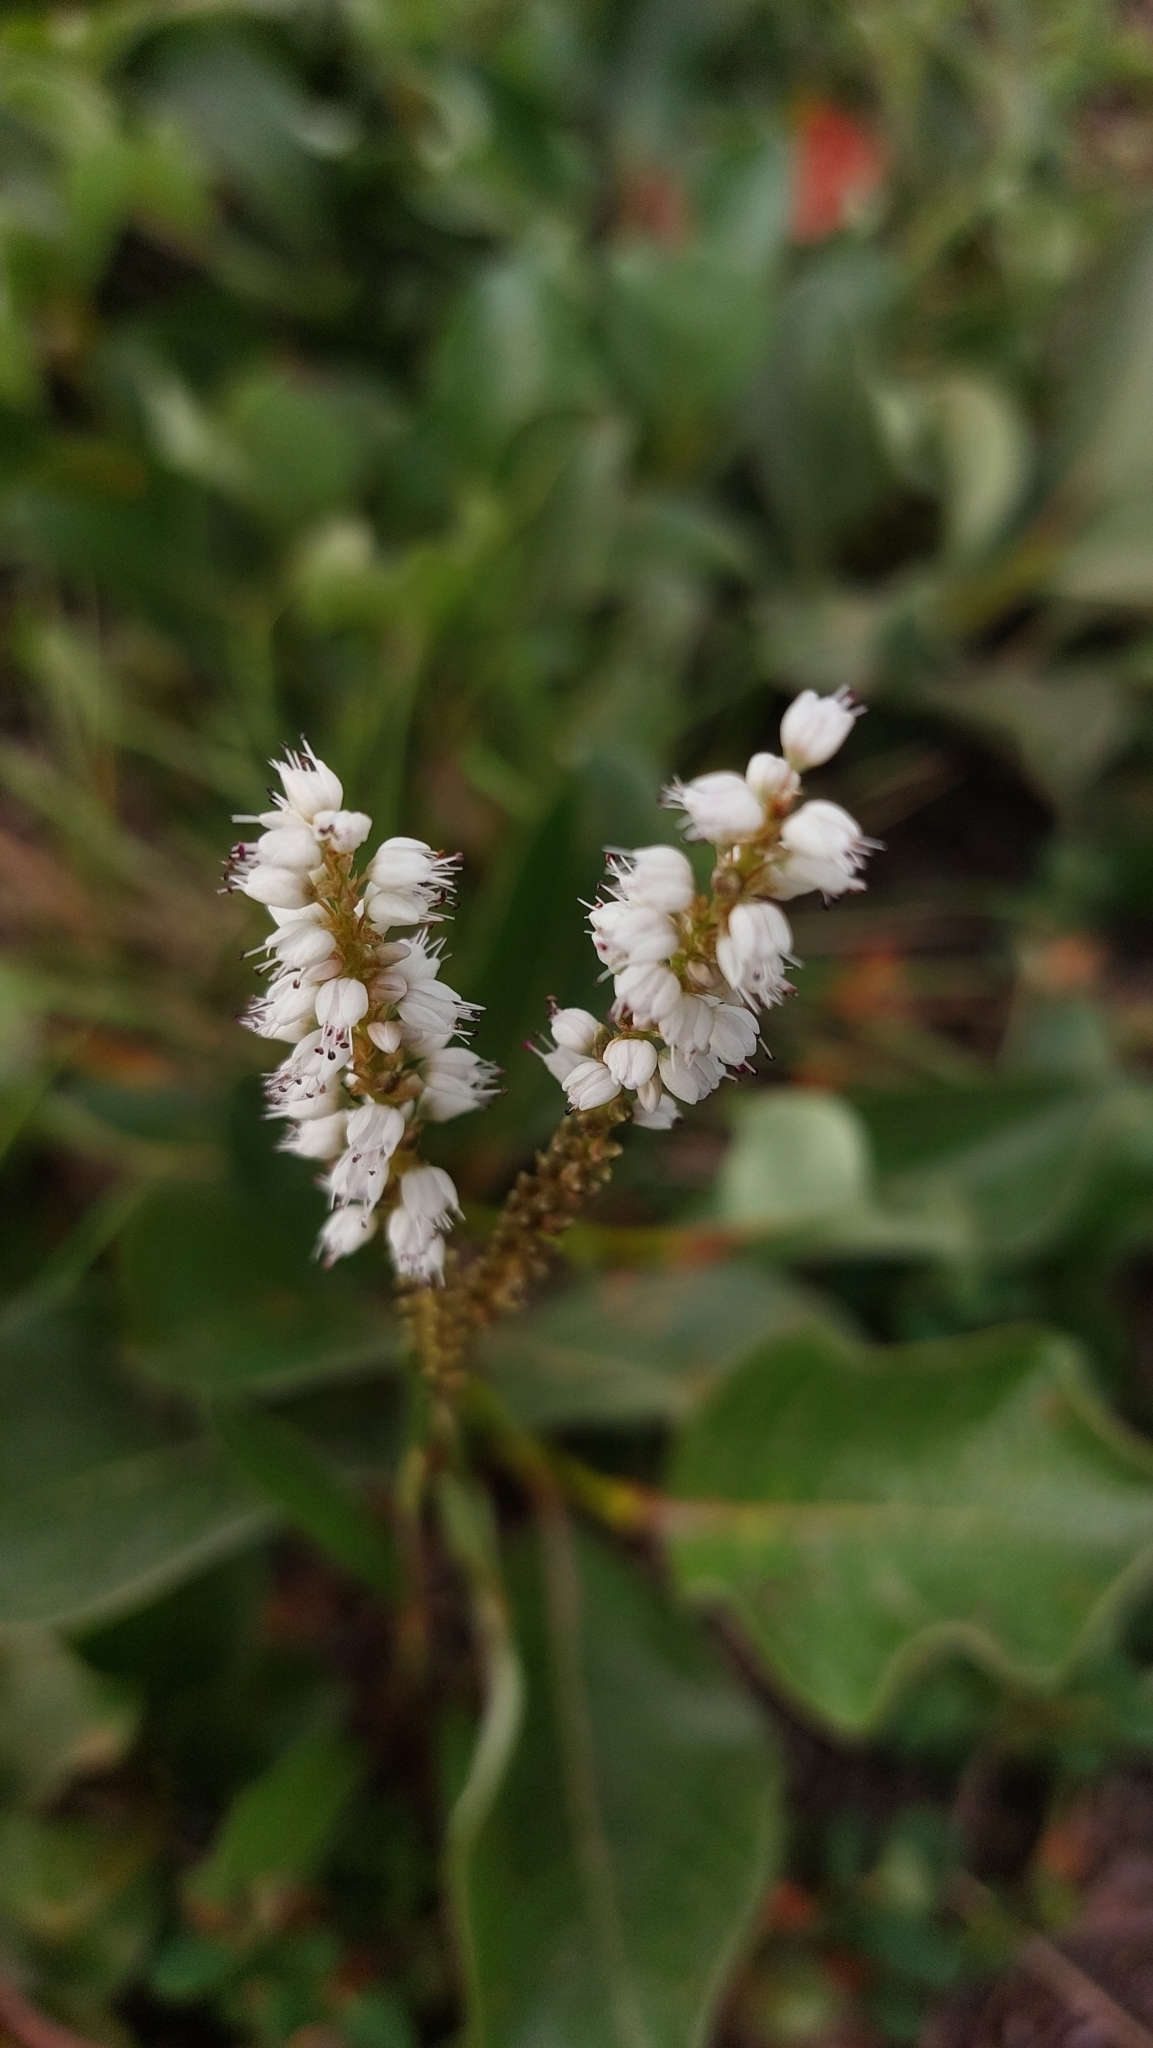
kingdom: Plantae
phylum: Tracheophyta
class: Magnoliopsida
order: Caryophyllales
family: Polygonaceae
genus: Bistorta
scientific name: Bistorta vivipara
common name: Alpine bistort
